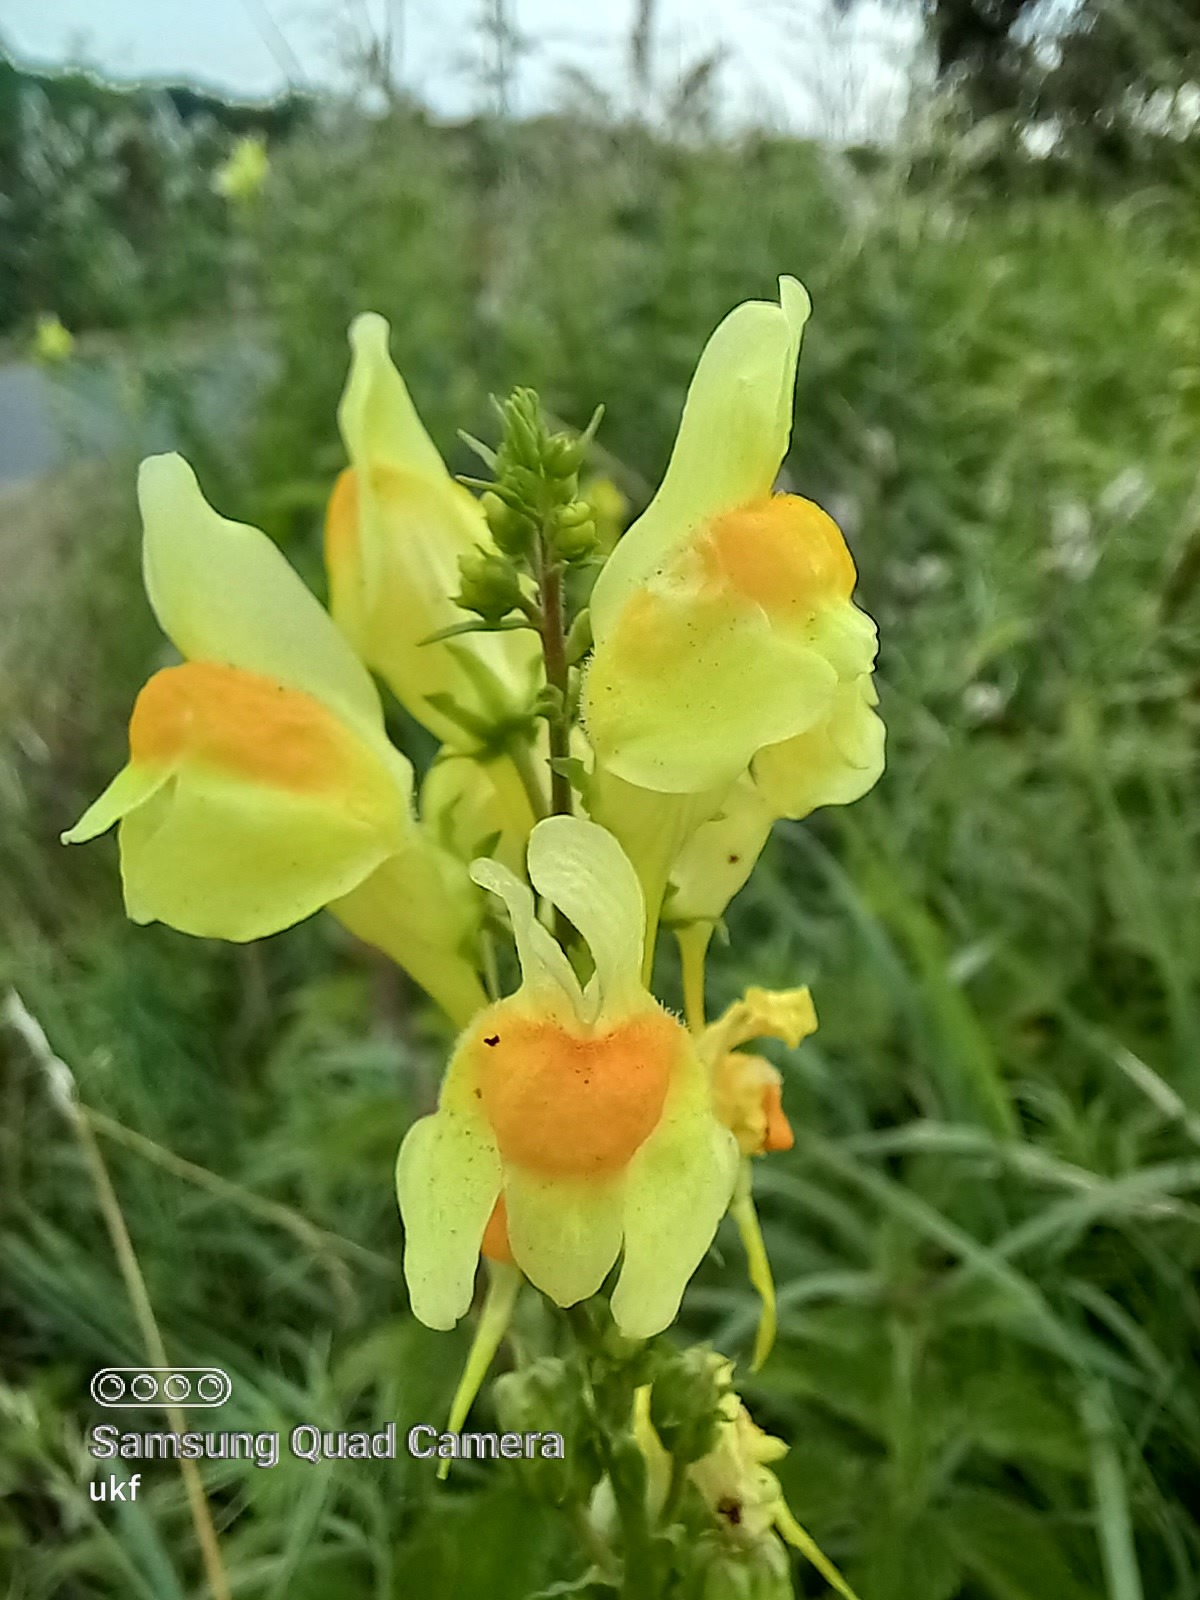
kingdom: Plantae
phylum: Tracheophyta
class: Magnoliopsida
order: Lamiales
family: Plantaginaceae
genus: Linaria
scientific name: Linaria vulgaris
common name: Butter and eggs
